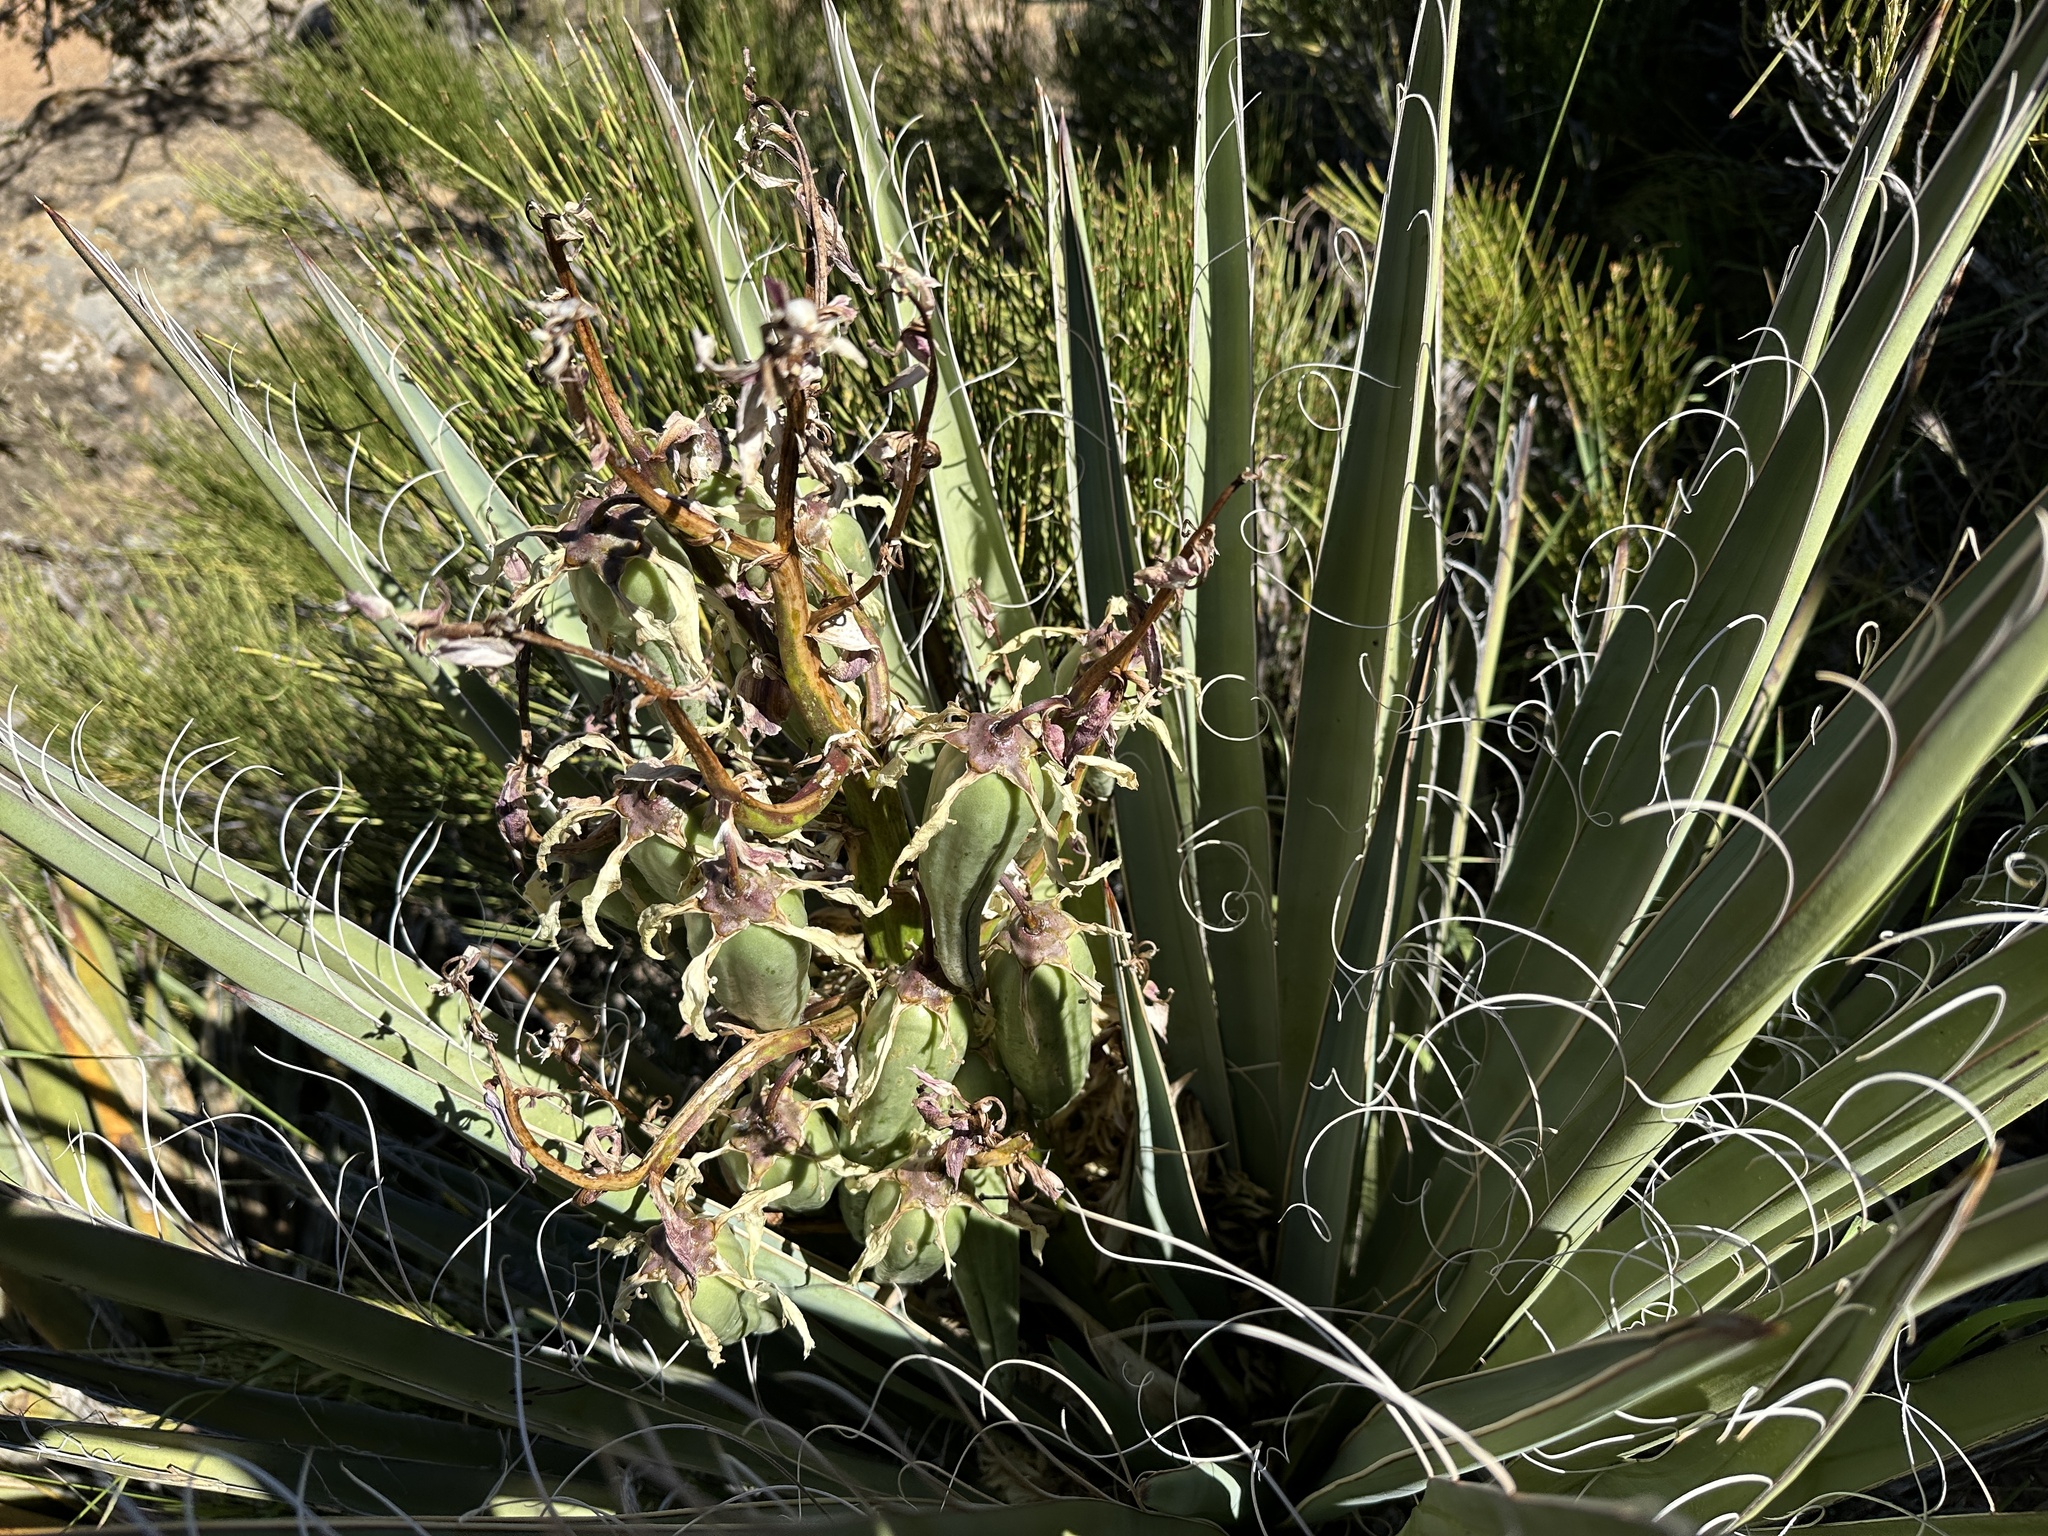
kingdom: Plantae
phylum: Tracheophyta
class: Liliopsida
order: Asparagales
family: Asparagaceae
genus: Yucca
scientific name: Yucca baccata
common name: Banana yucca
